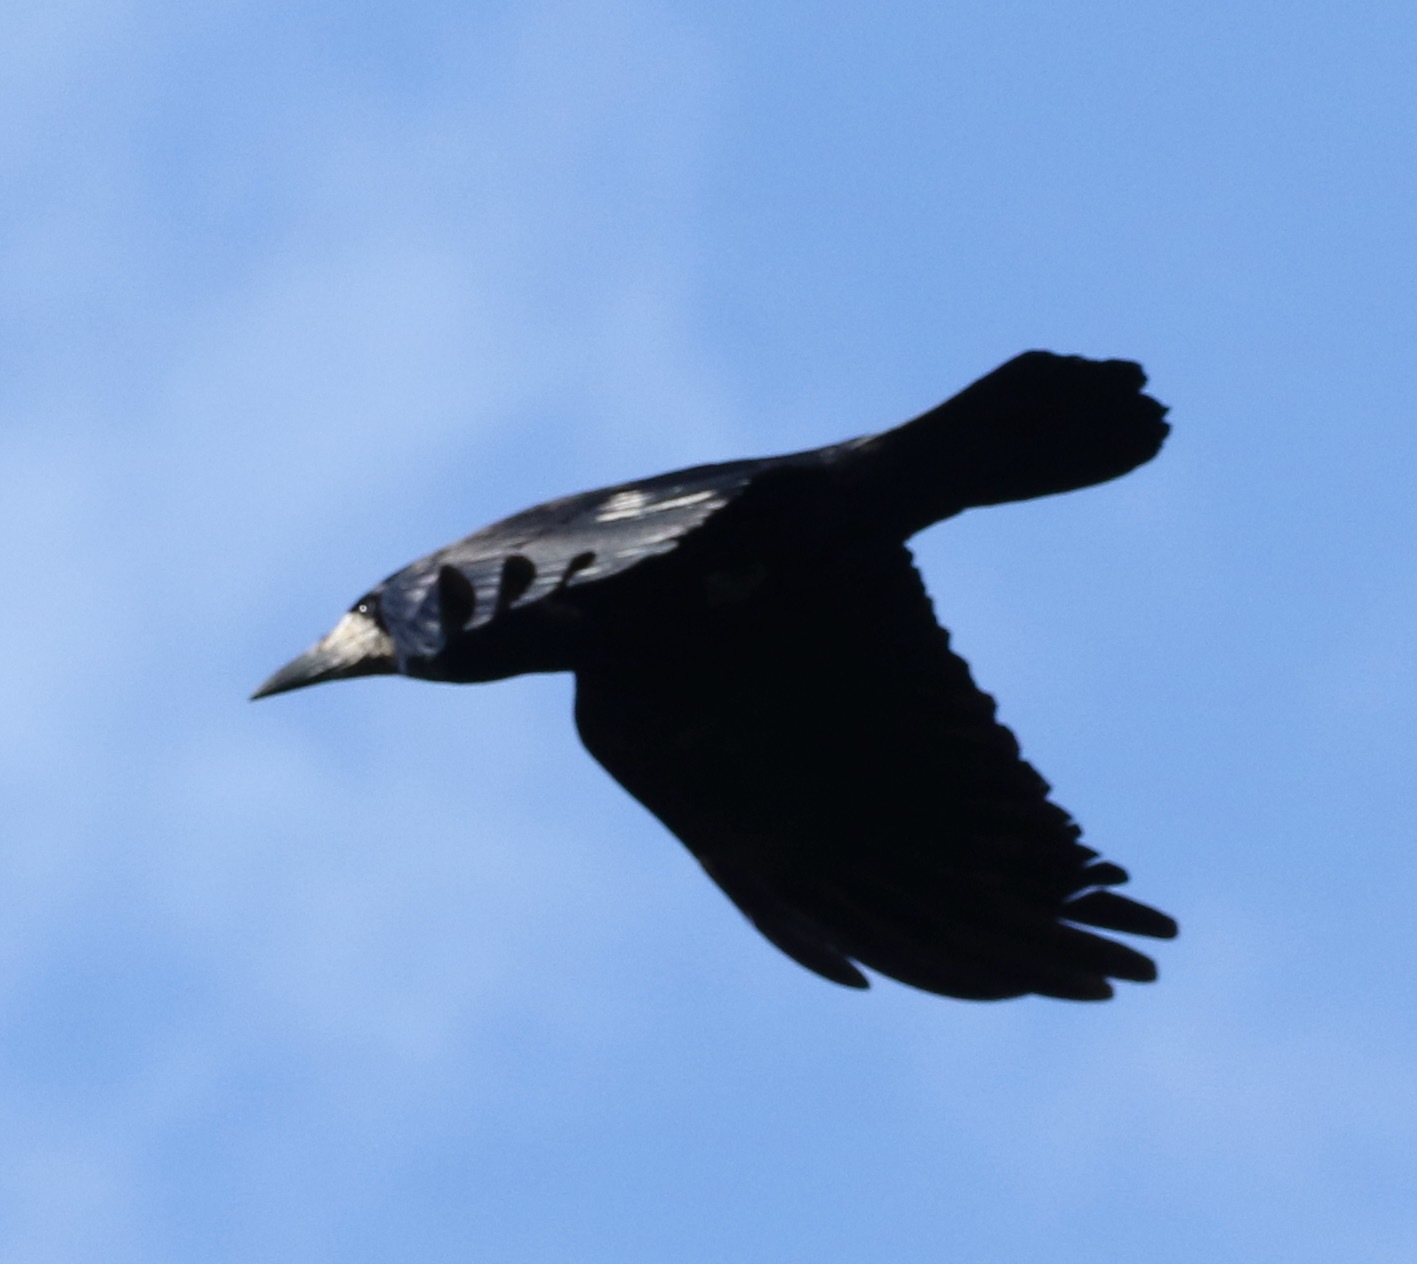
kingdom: Animalia
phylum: Chordata
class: Aves
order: Passeriformes
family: Corvidae
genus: Corvus
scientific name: Corvus frugilegus
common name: Rook
